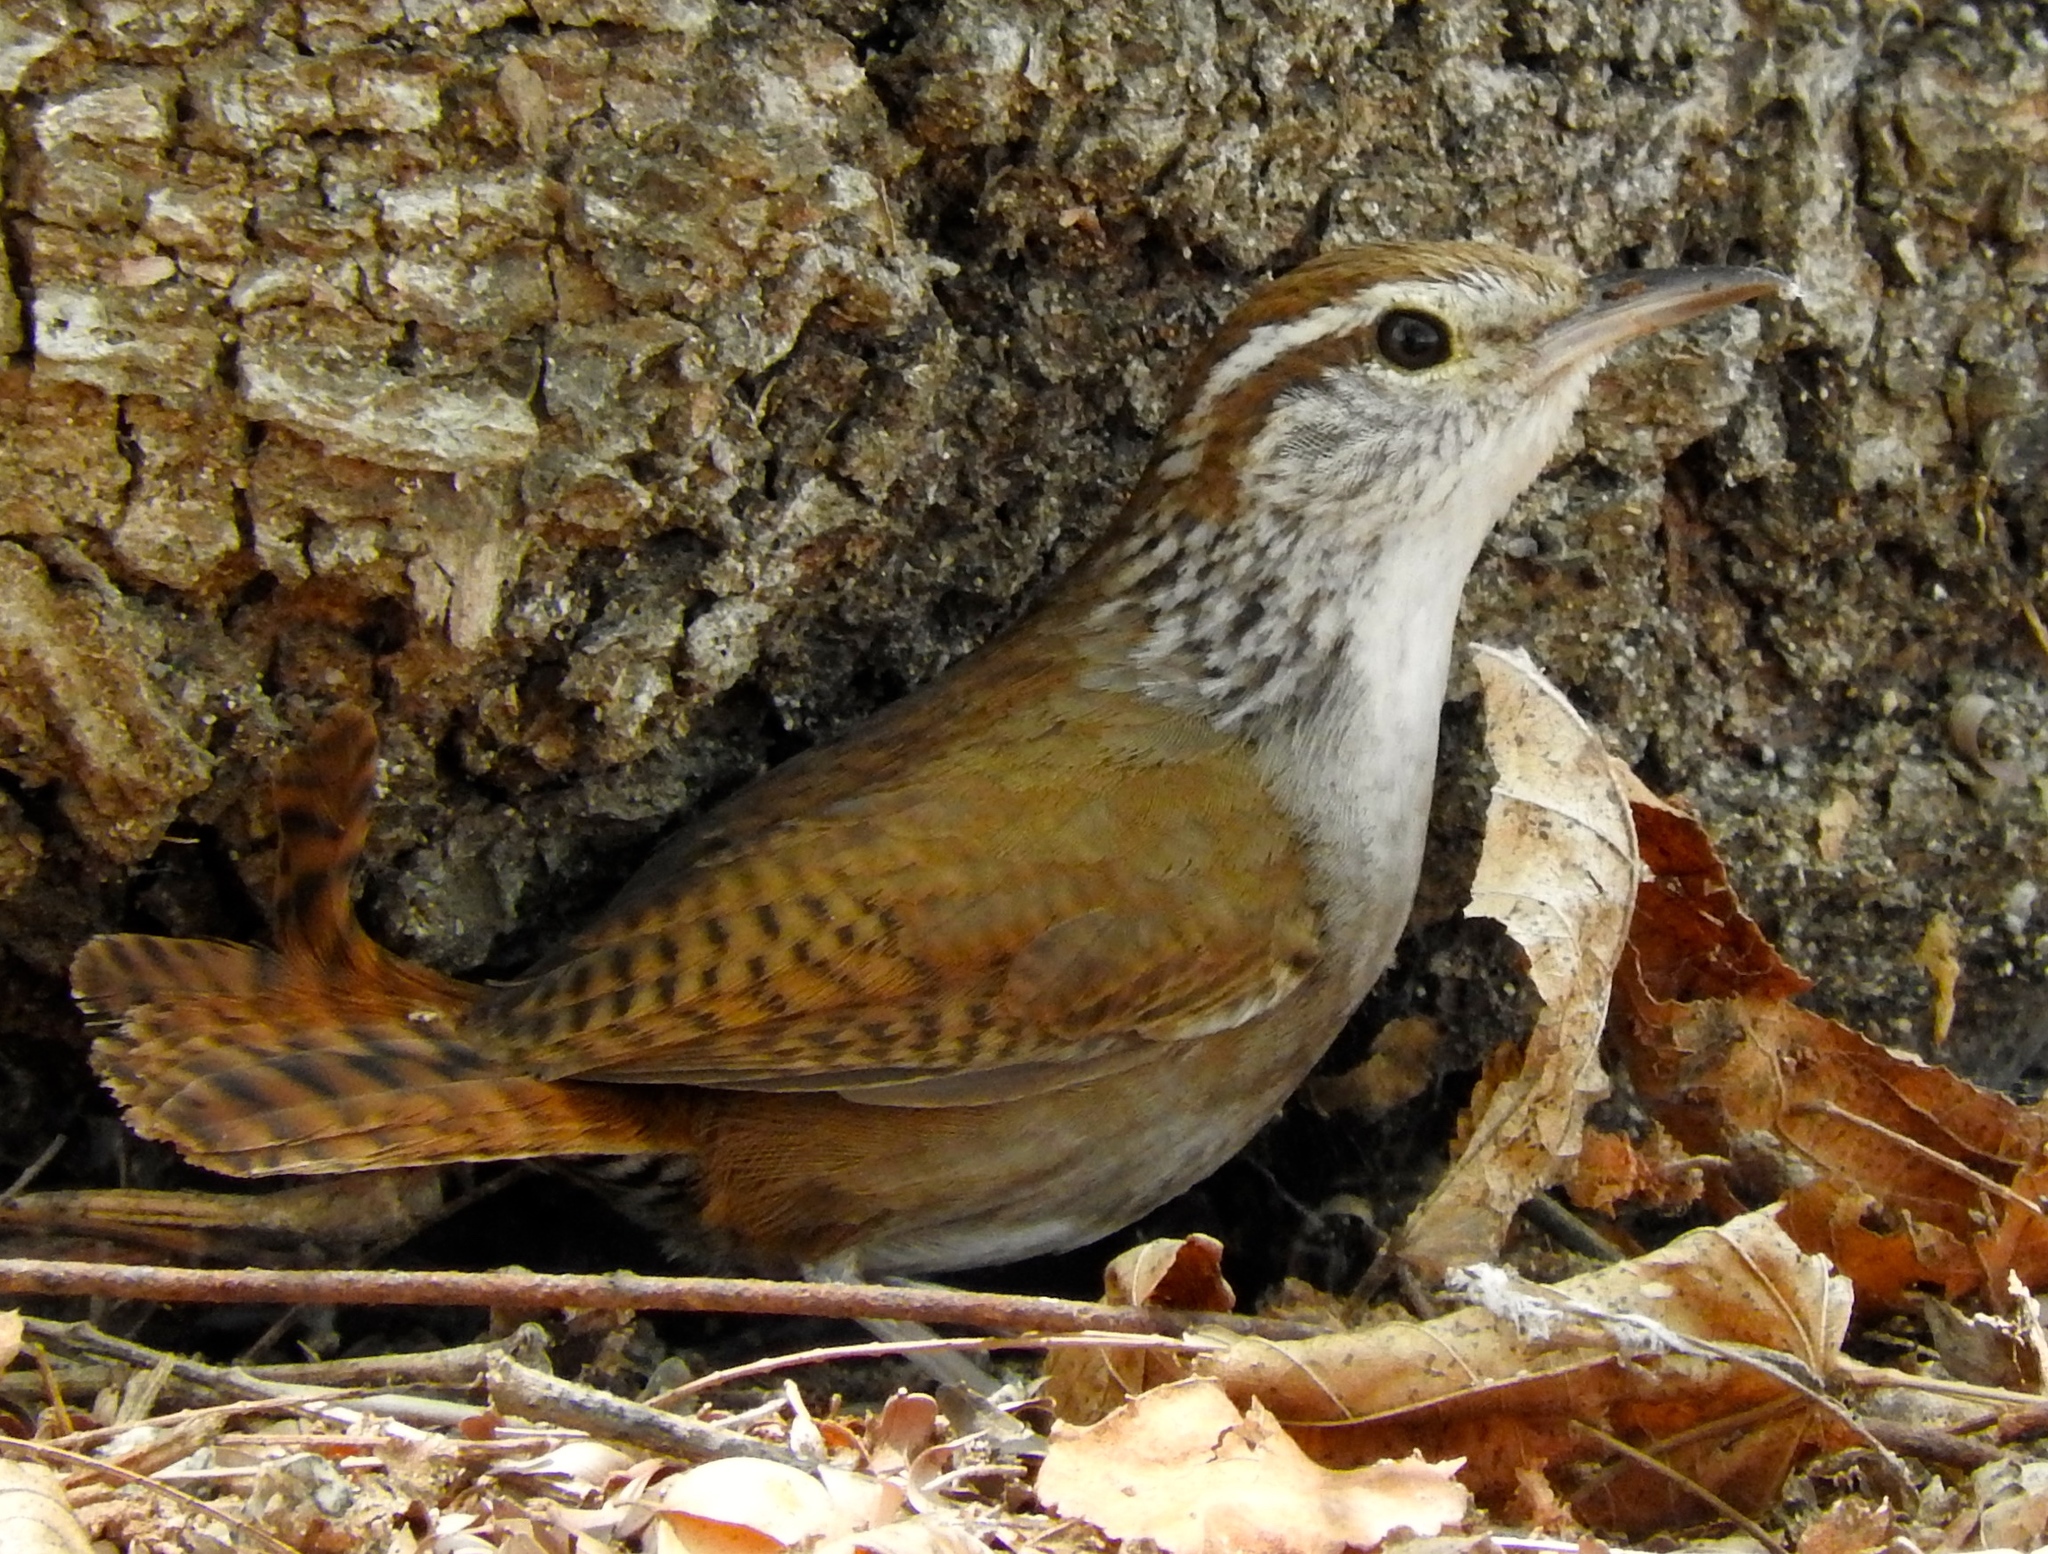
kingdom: Animalia
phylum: Chordata
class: Aves
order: Passeriformes
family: Troglodytidae
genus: Thryophilus
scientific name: Thryophilus sinaloa
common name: Sinaloa wren
